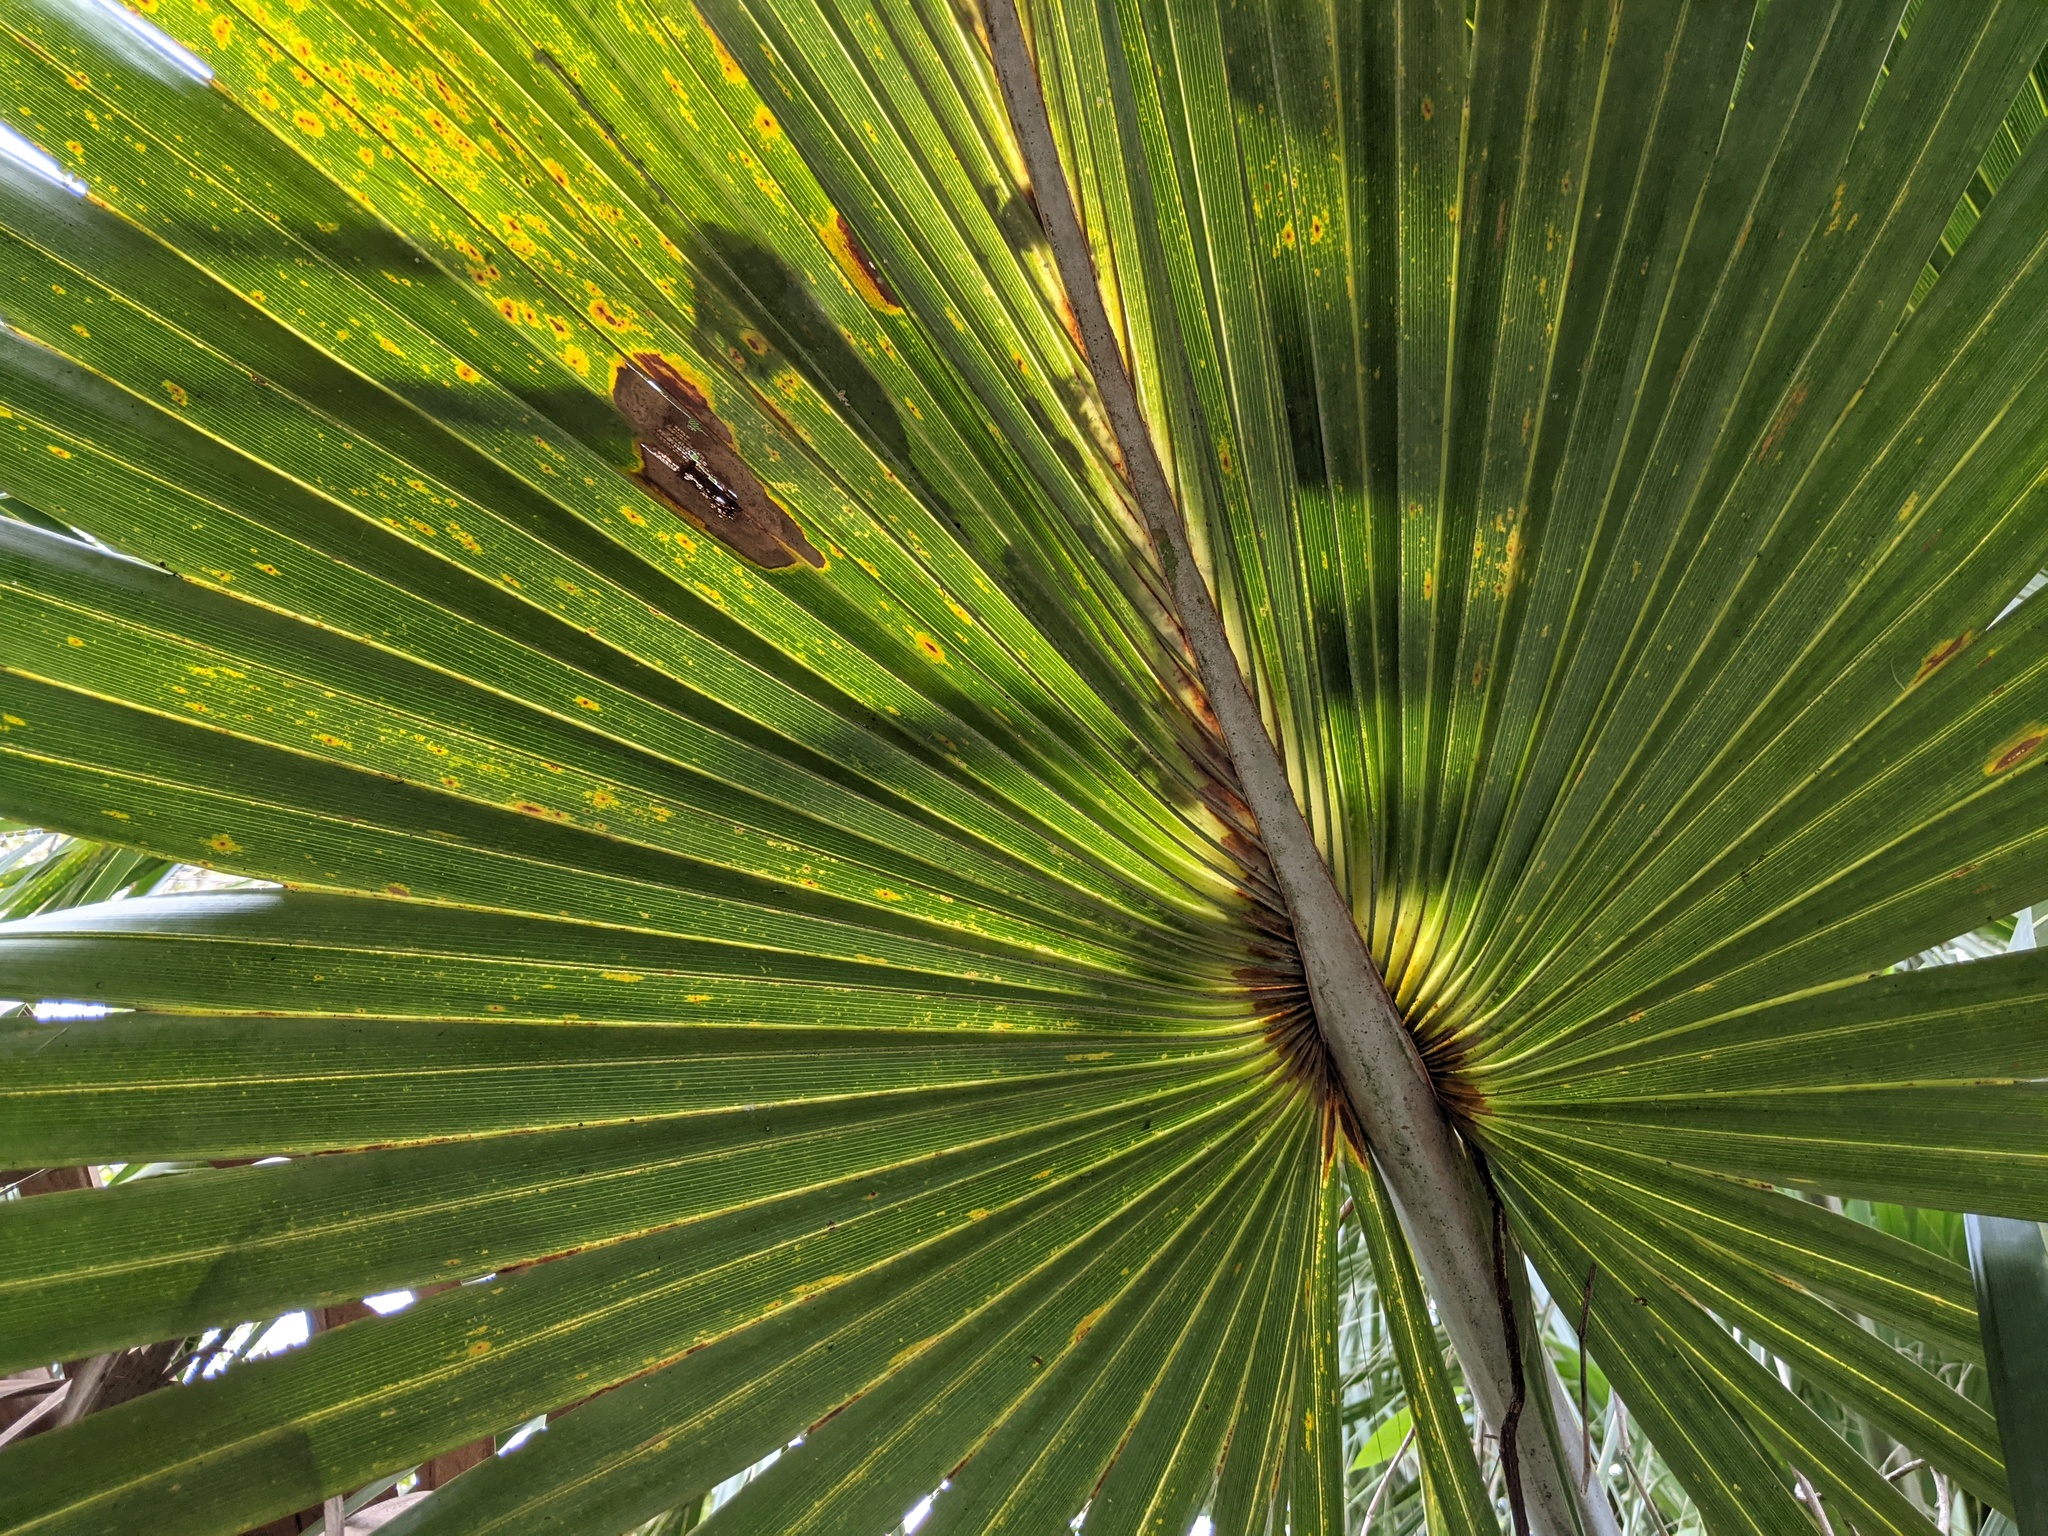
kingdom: Plantae
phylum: Tracheophyta
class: Liliopsida
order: Arecales
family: Arecaceae
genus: Sabal
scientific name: Sabal palmetto
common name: Blue palmetto
